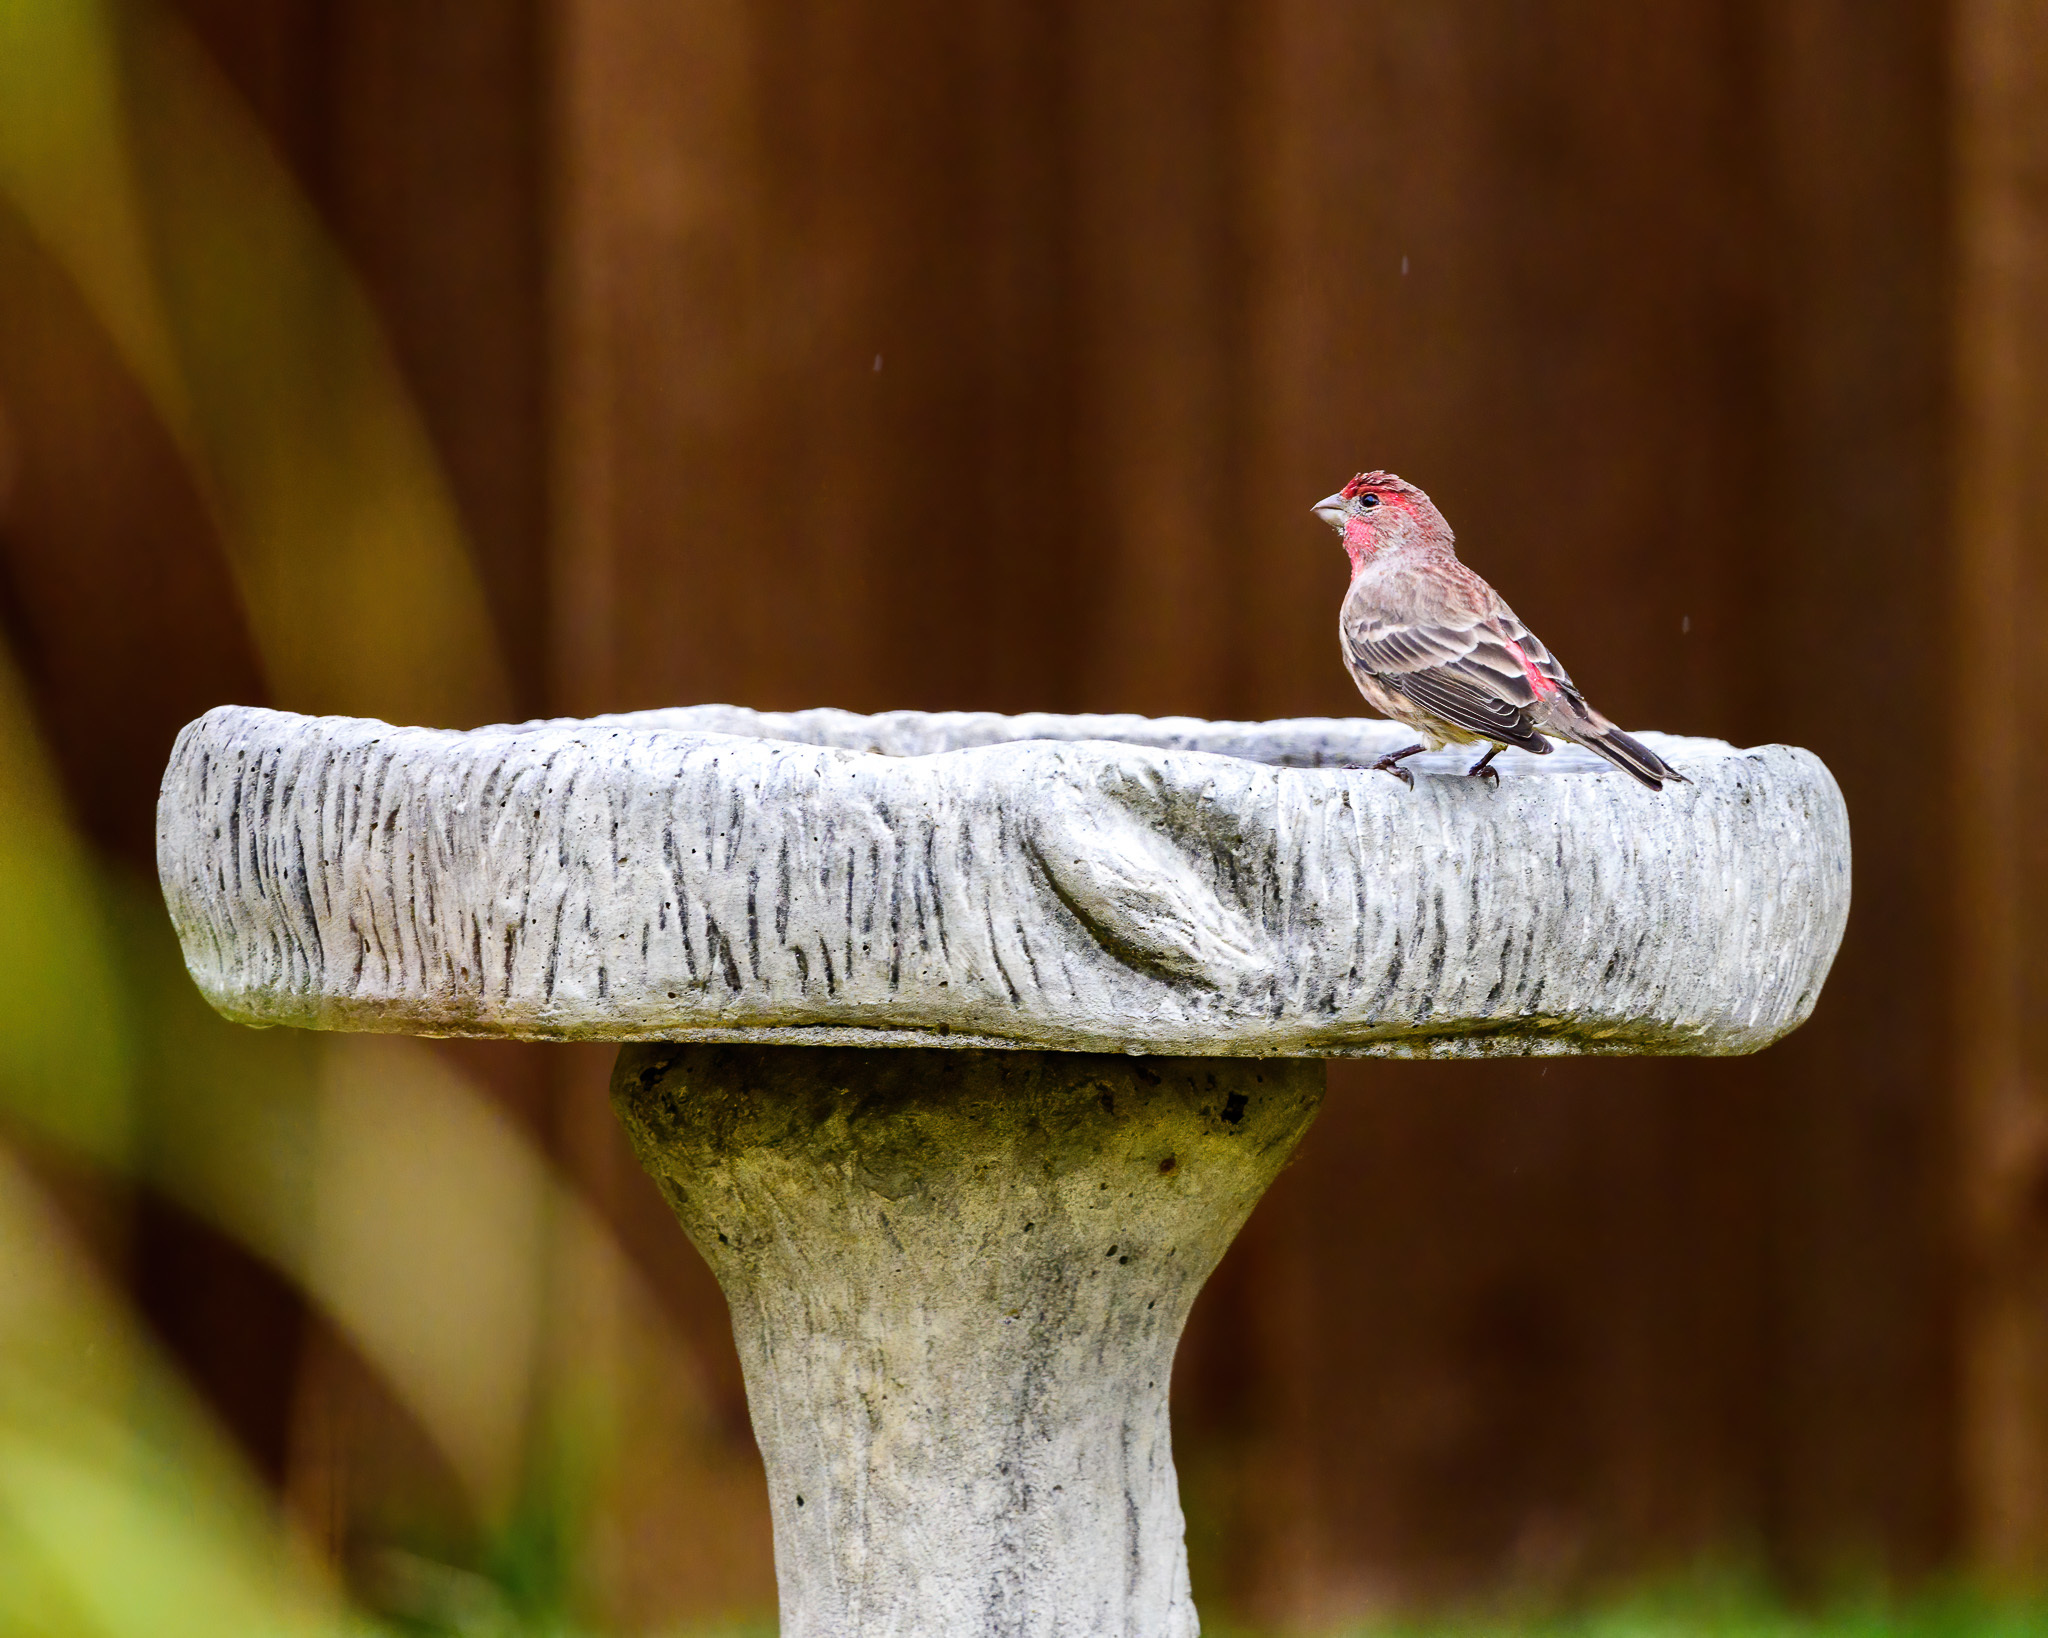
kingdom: Animalia
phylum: Chordata
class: Aves
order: Passeriformes
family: Fringillidae
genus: Haemorhous
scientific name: Haemorhous mexicanus
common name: House finch
